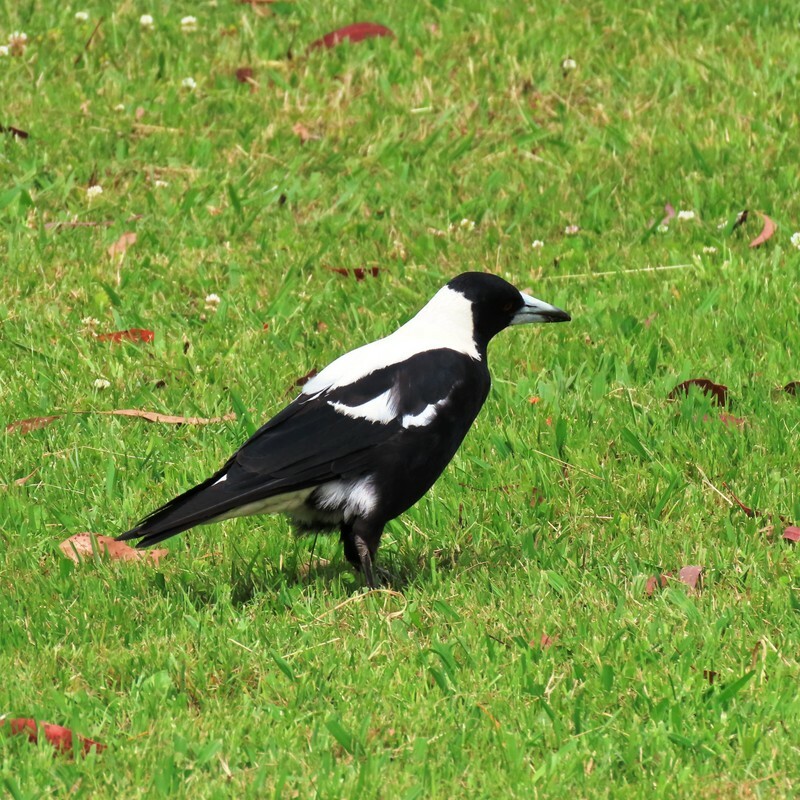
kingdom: Animalia
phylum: Chordata
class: Aves
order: Passeriformes
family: Cracticidae
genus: Gymnorhina
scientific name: Gymnorhina tibicen
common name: Australian magpie
